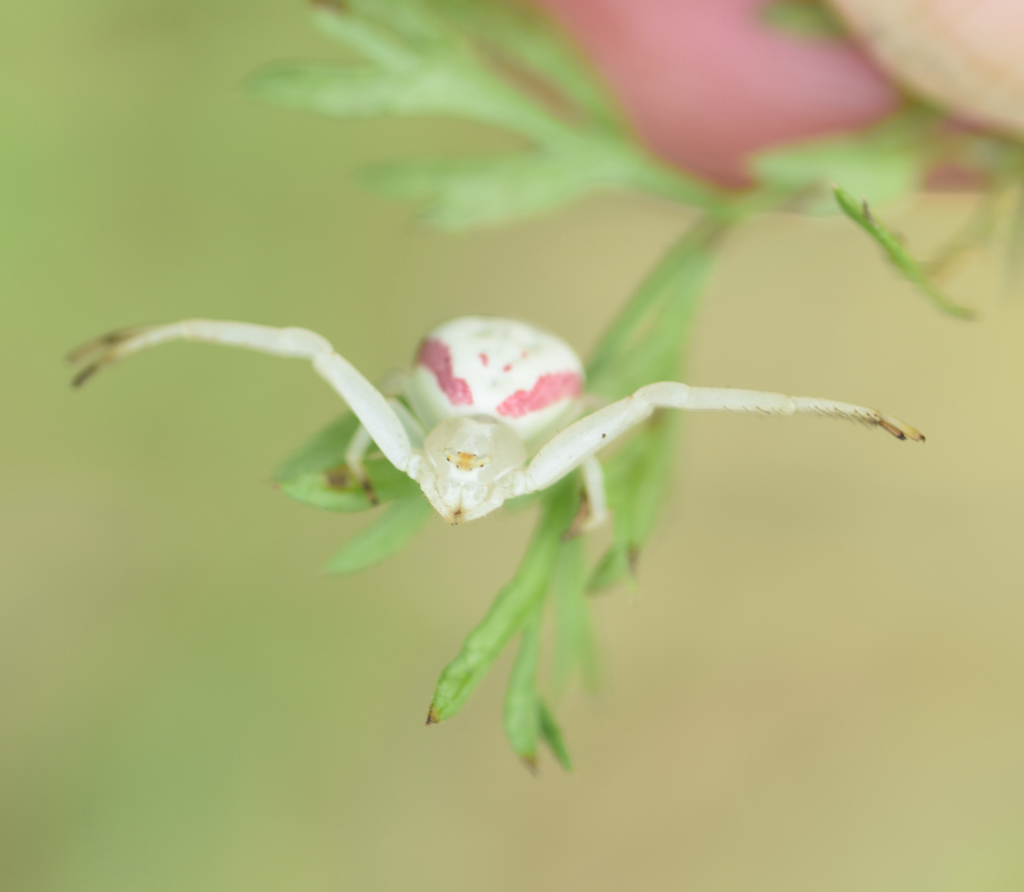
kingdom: Animalia
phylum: Arthropoda
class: Arachnida
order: Araneae
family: Thomisidae
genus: Misumena
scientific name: Misumena vatia
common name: Goldenrod crab spider
